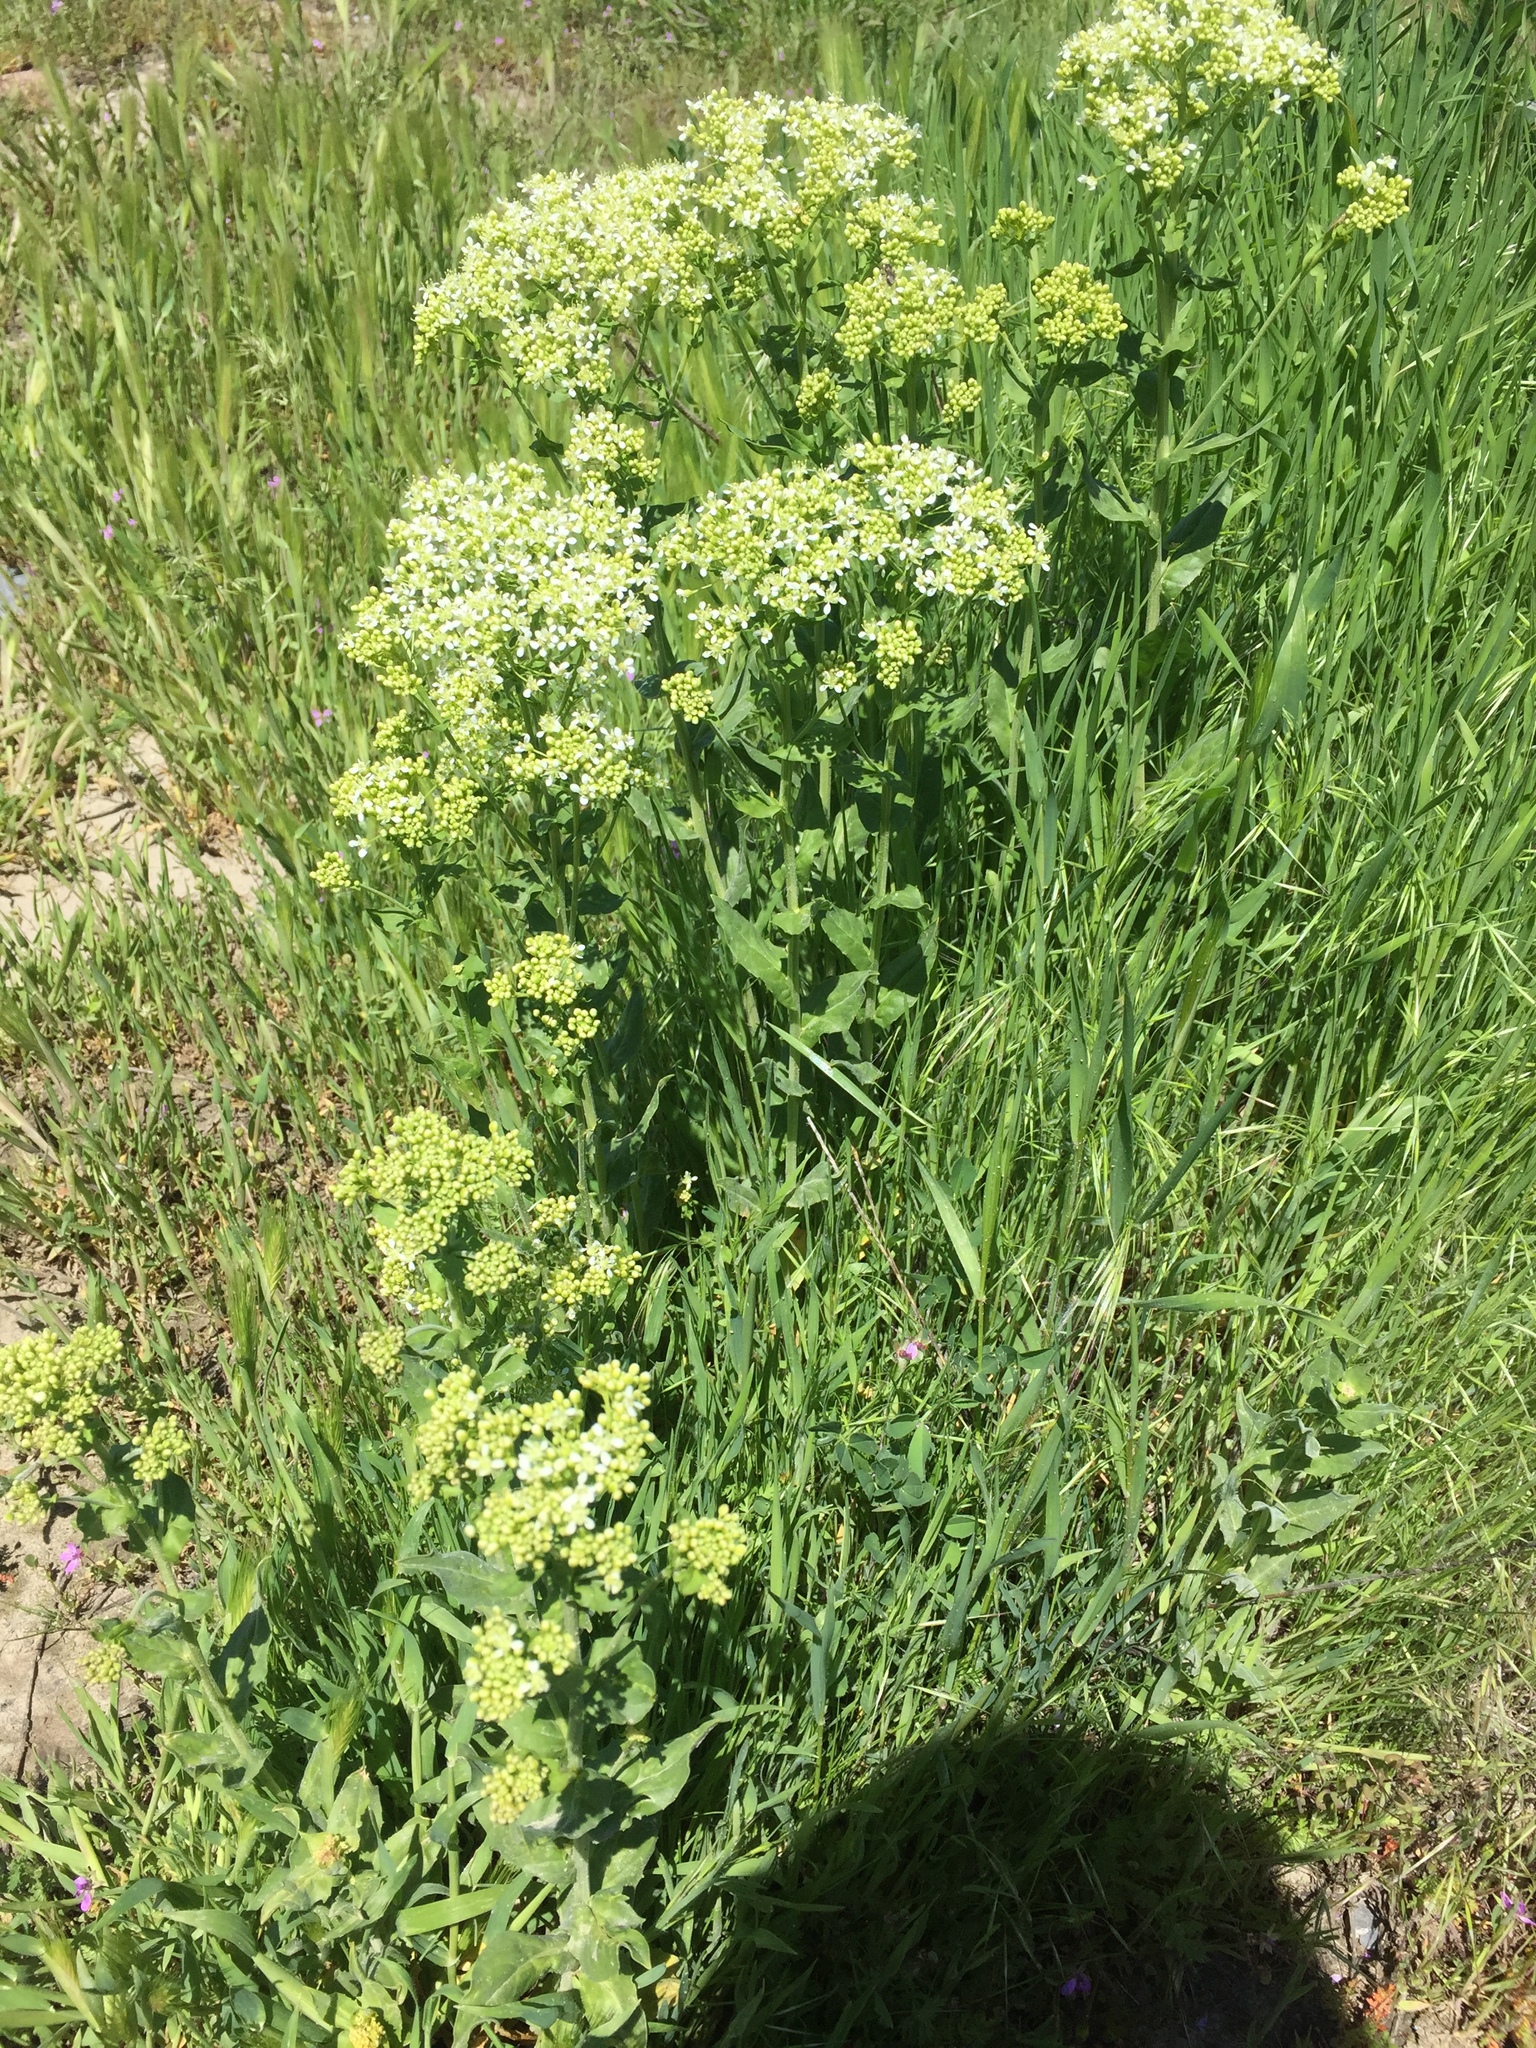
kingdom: Plantae
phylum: Tracheophyta
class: Magnoliopsida
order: Brassicales
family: Brassicaceae
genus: Lepidium
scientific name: Lepidium draba
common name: Hoary cress
